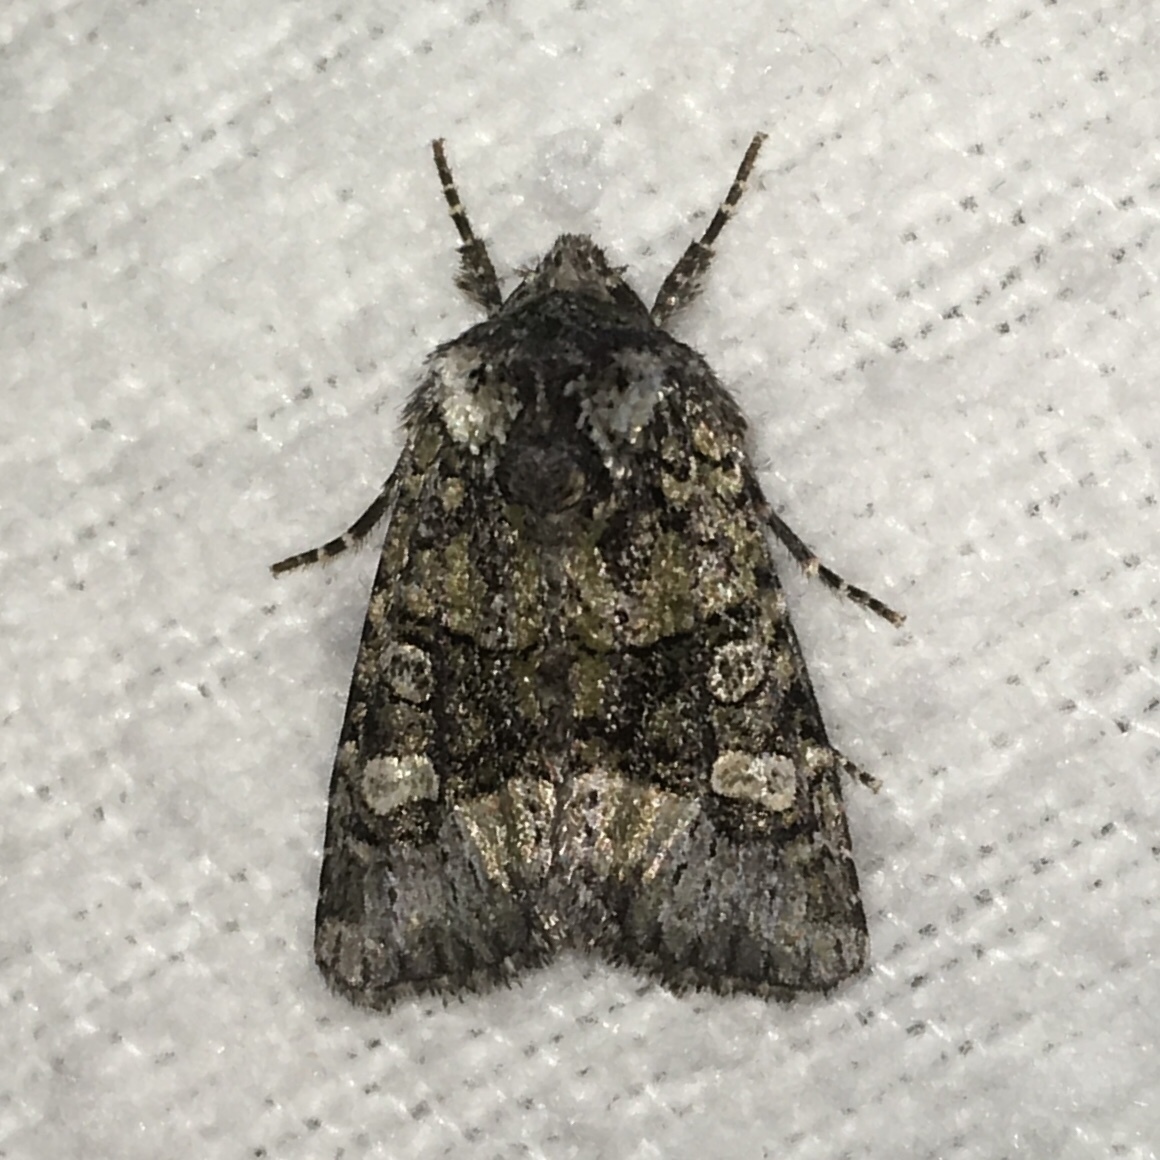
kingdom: Animalia
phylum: Arthropoda
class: Insecta
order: Lepidoptera
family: Noctuidae
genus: Lacinipolia
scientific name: Lacinipolia olivacea
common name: Olive arches moth
